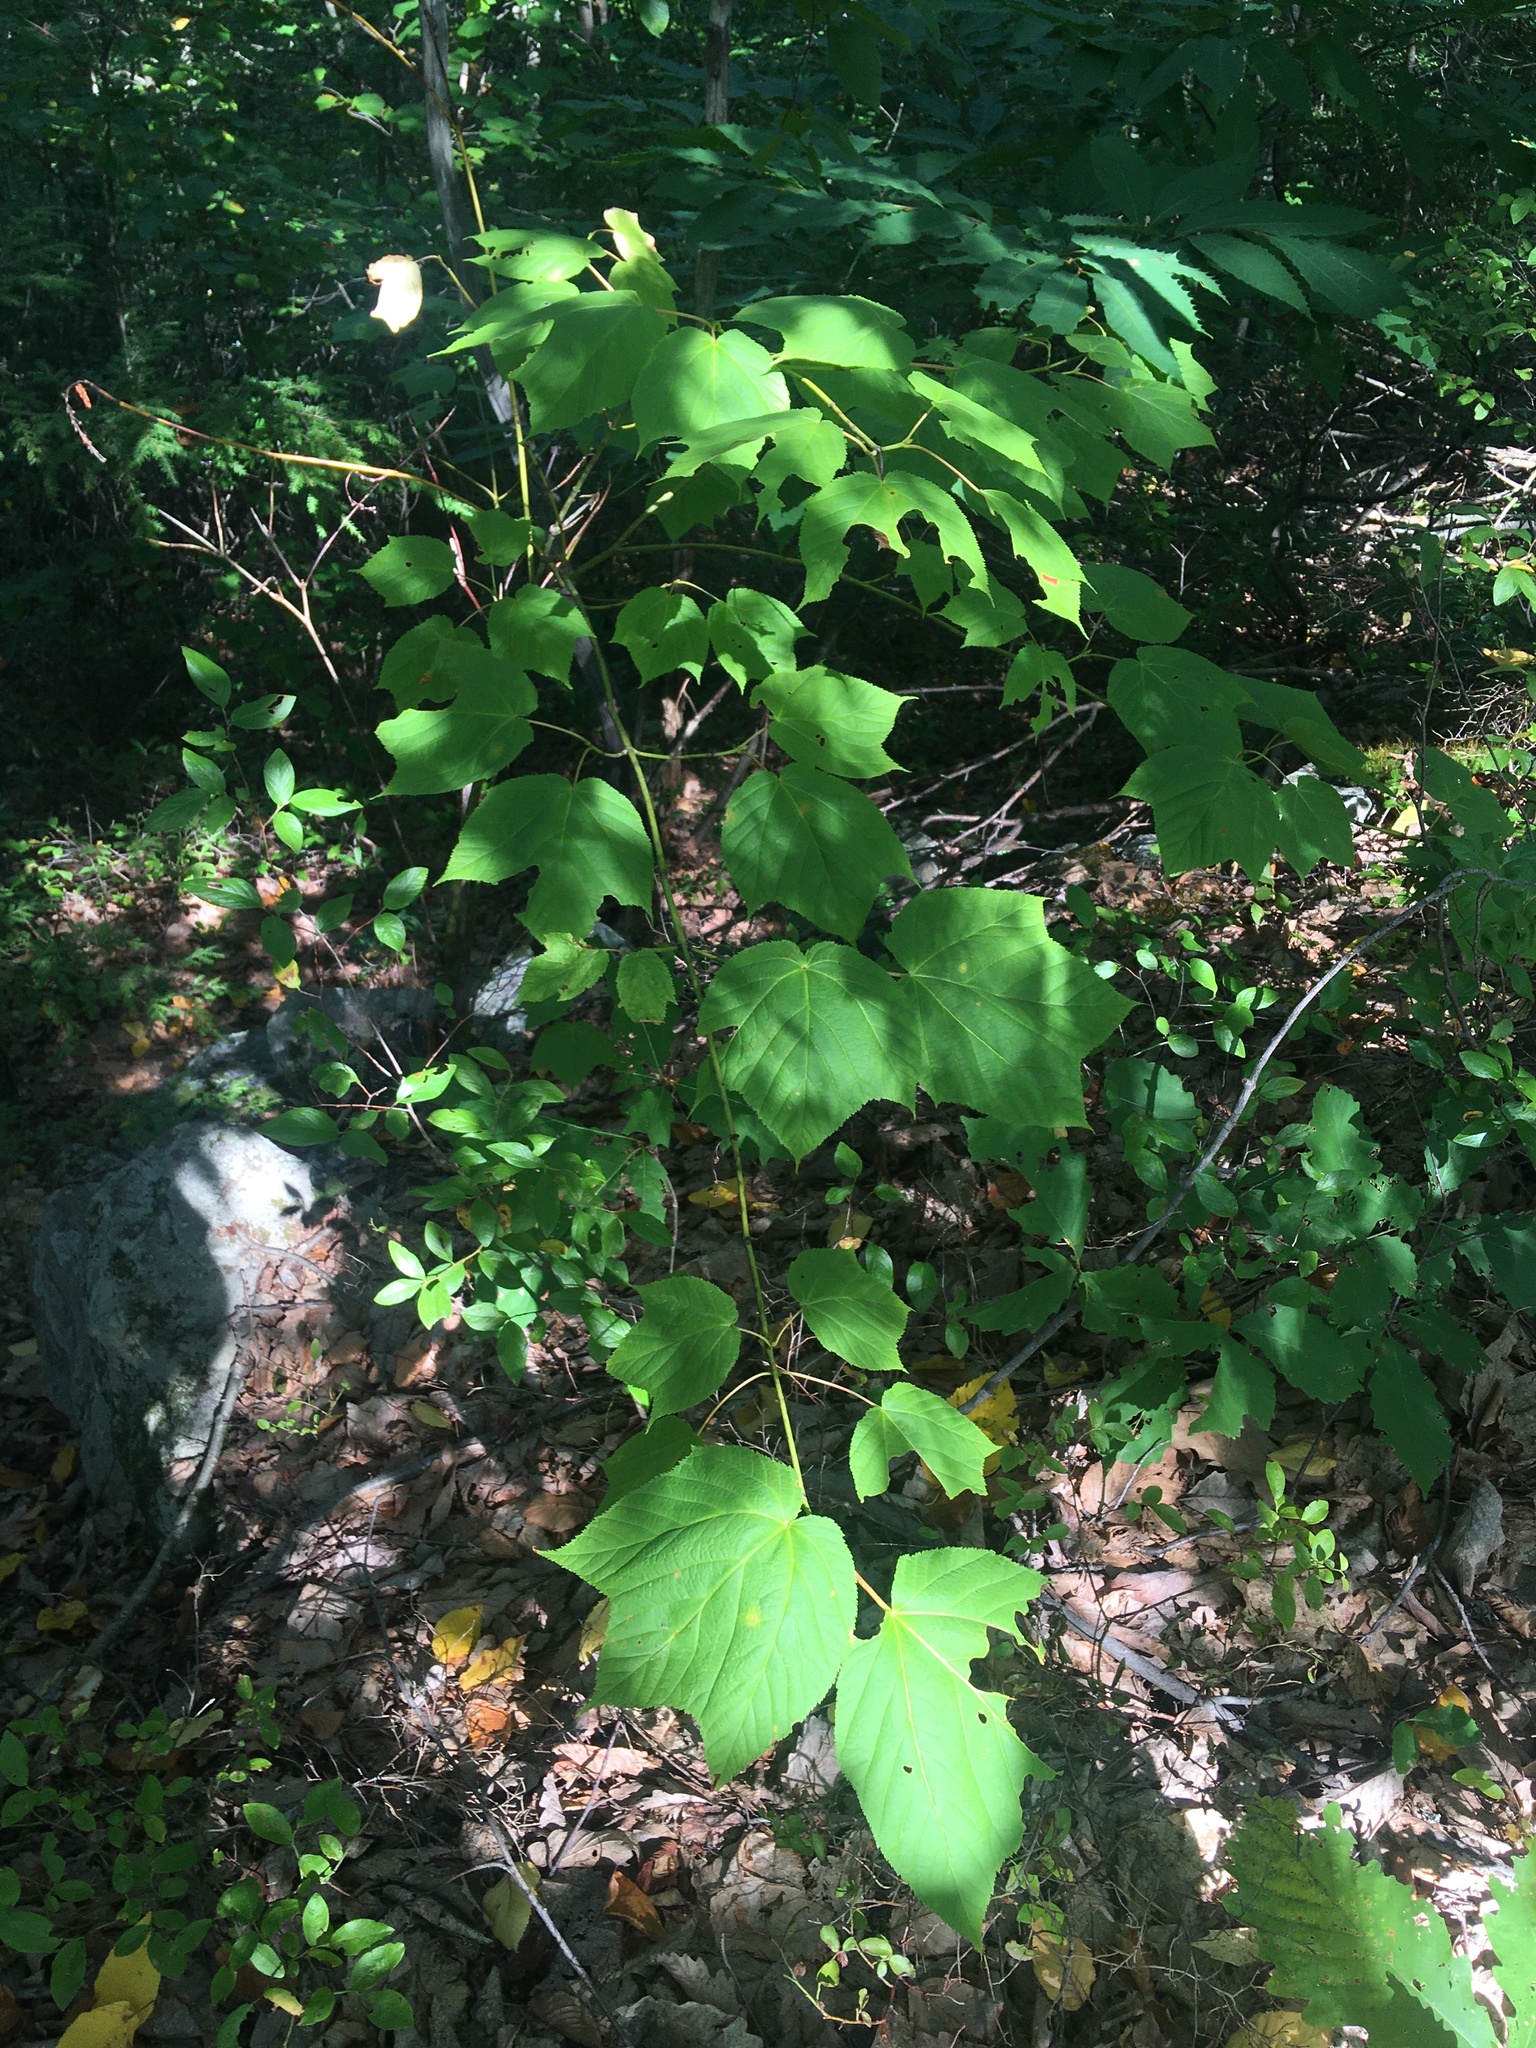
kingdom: Plantae
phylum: Tracheophyta
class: Magnoliopsida
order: Sapindales
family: Sapindaceae
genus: Acer
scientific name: Acer pensylvanicum
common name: Moosewood
